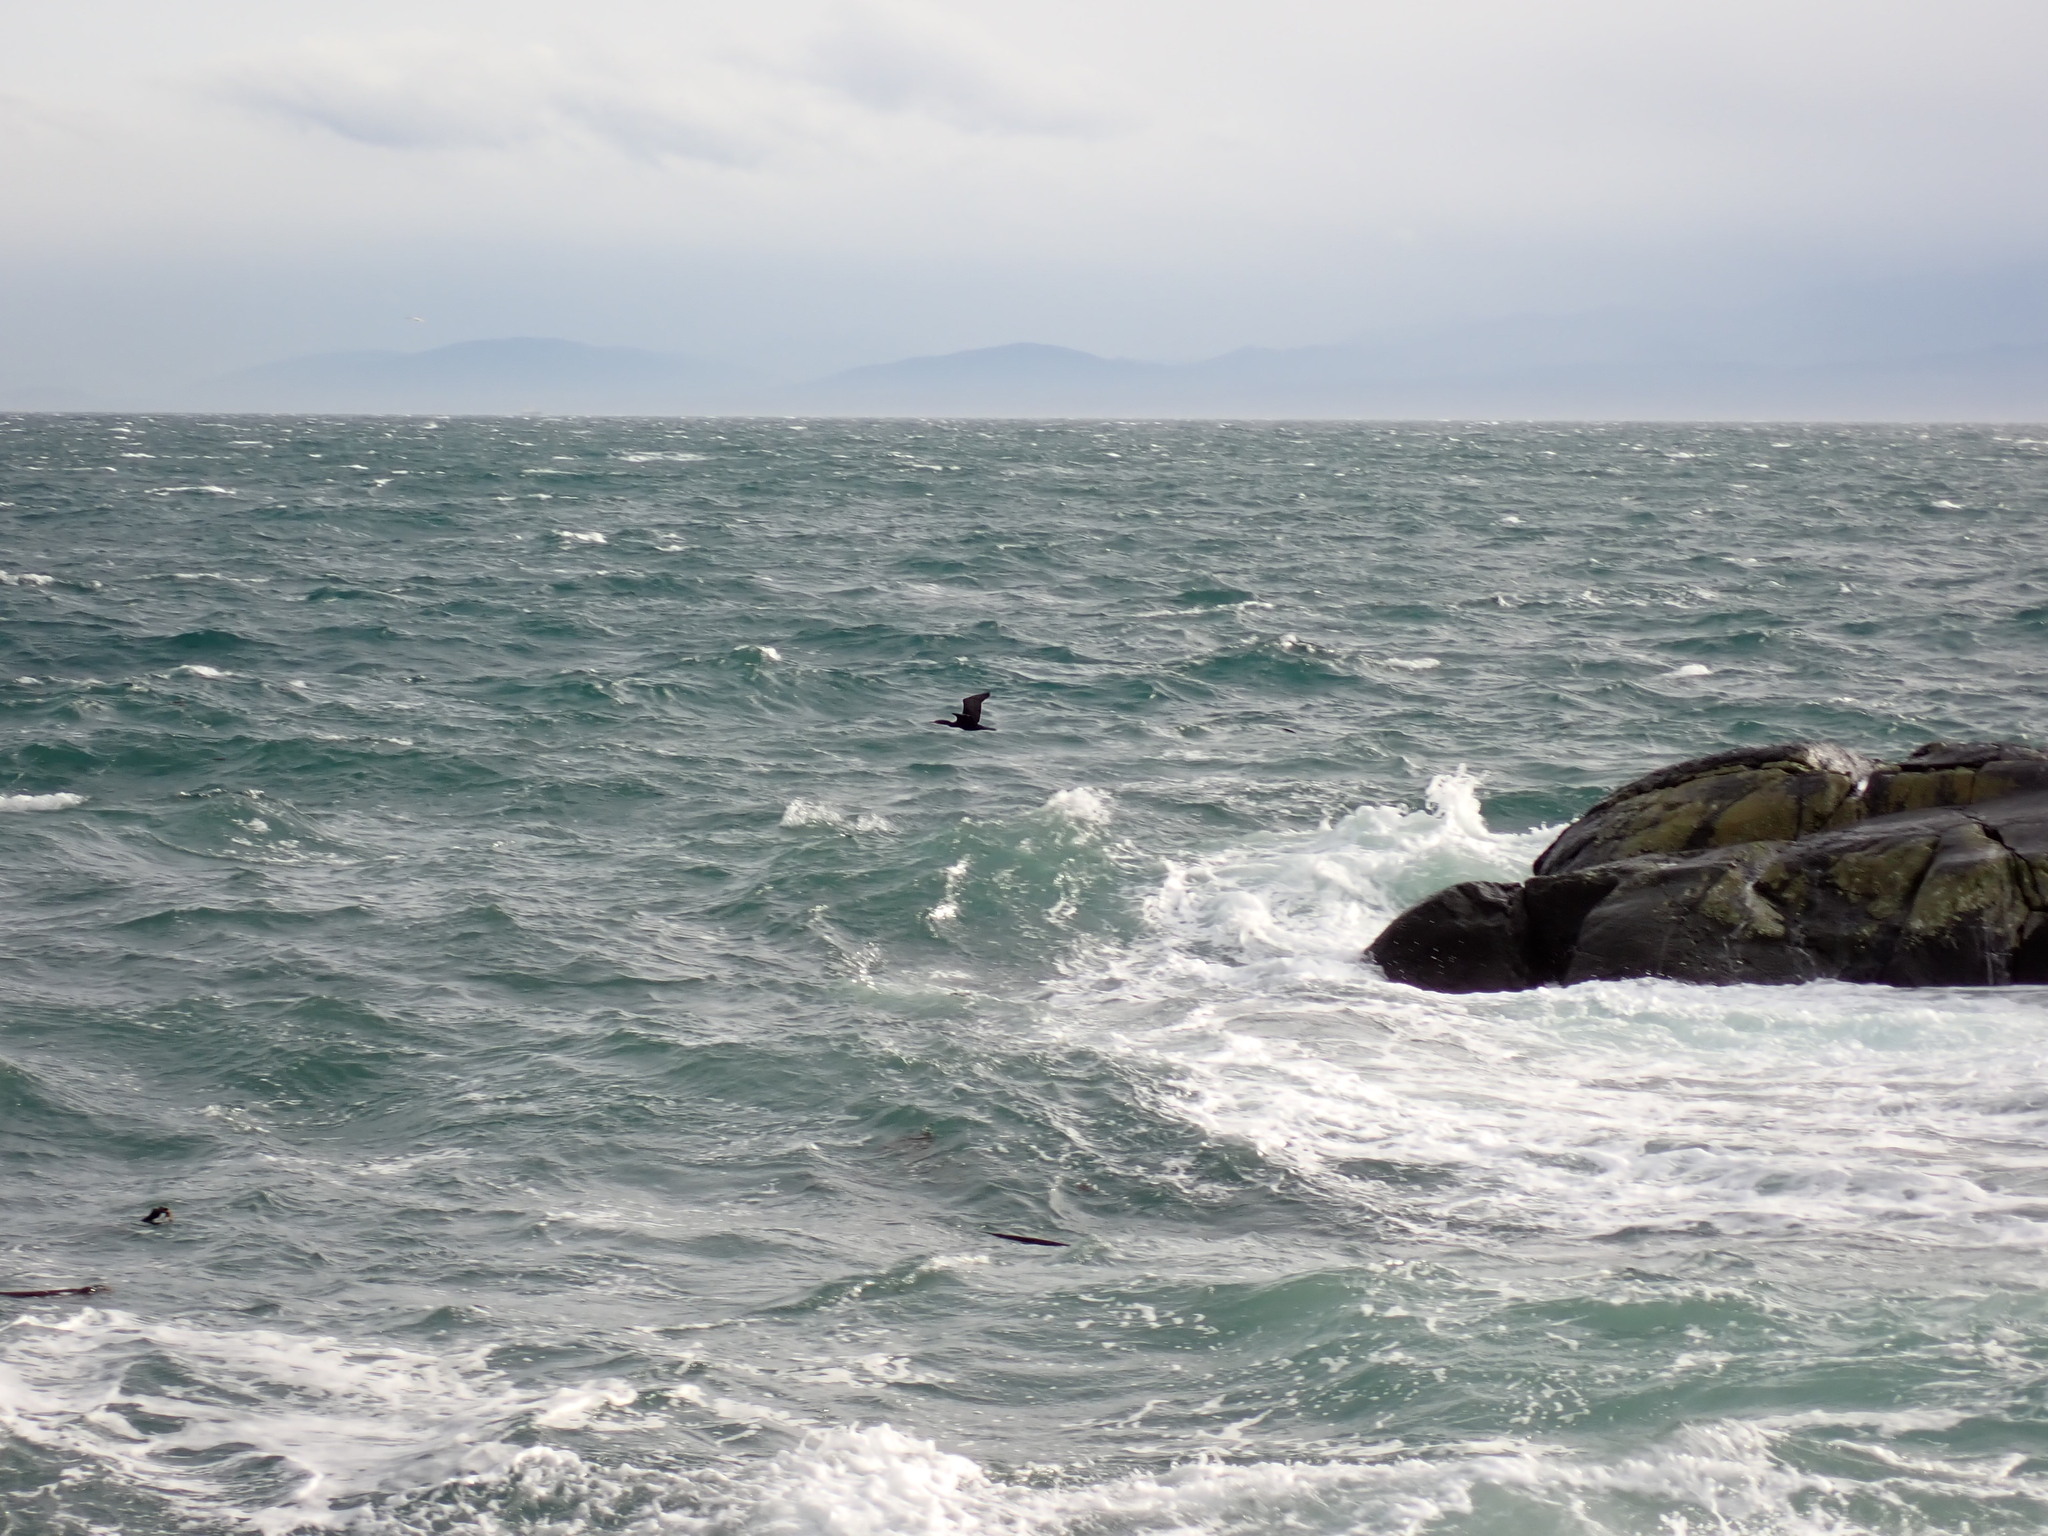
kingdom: Animalia
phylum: Chordata
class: Aves
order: Suliformes
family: Phalacrocoracidae
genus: Phalacrocorax
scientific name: Phalacrocorax pelagicus
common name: Pelagic cormorant
